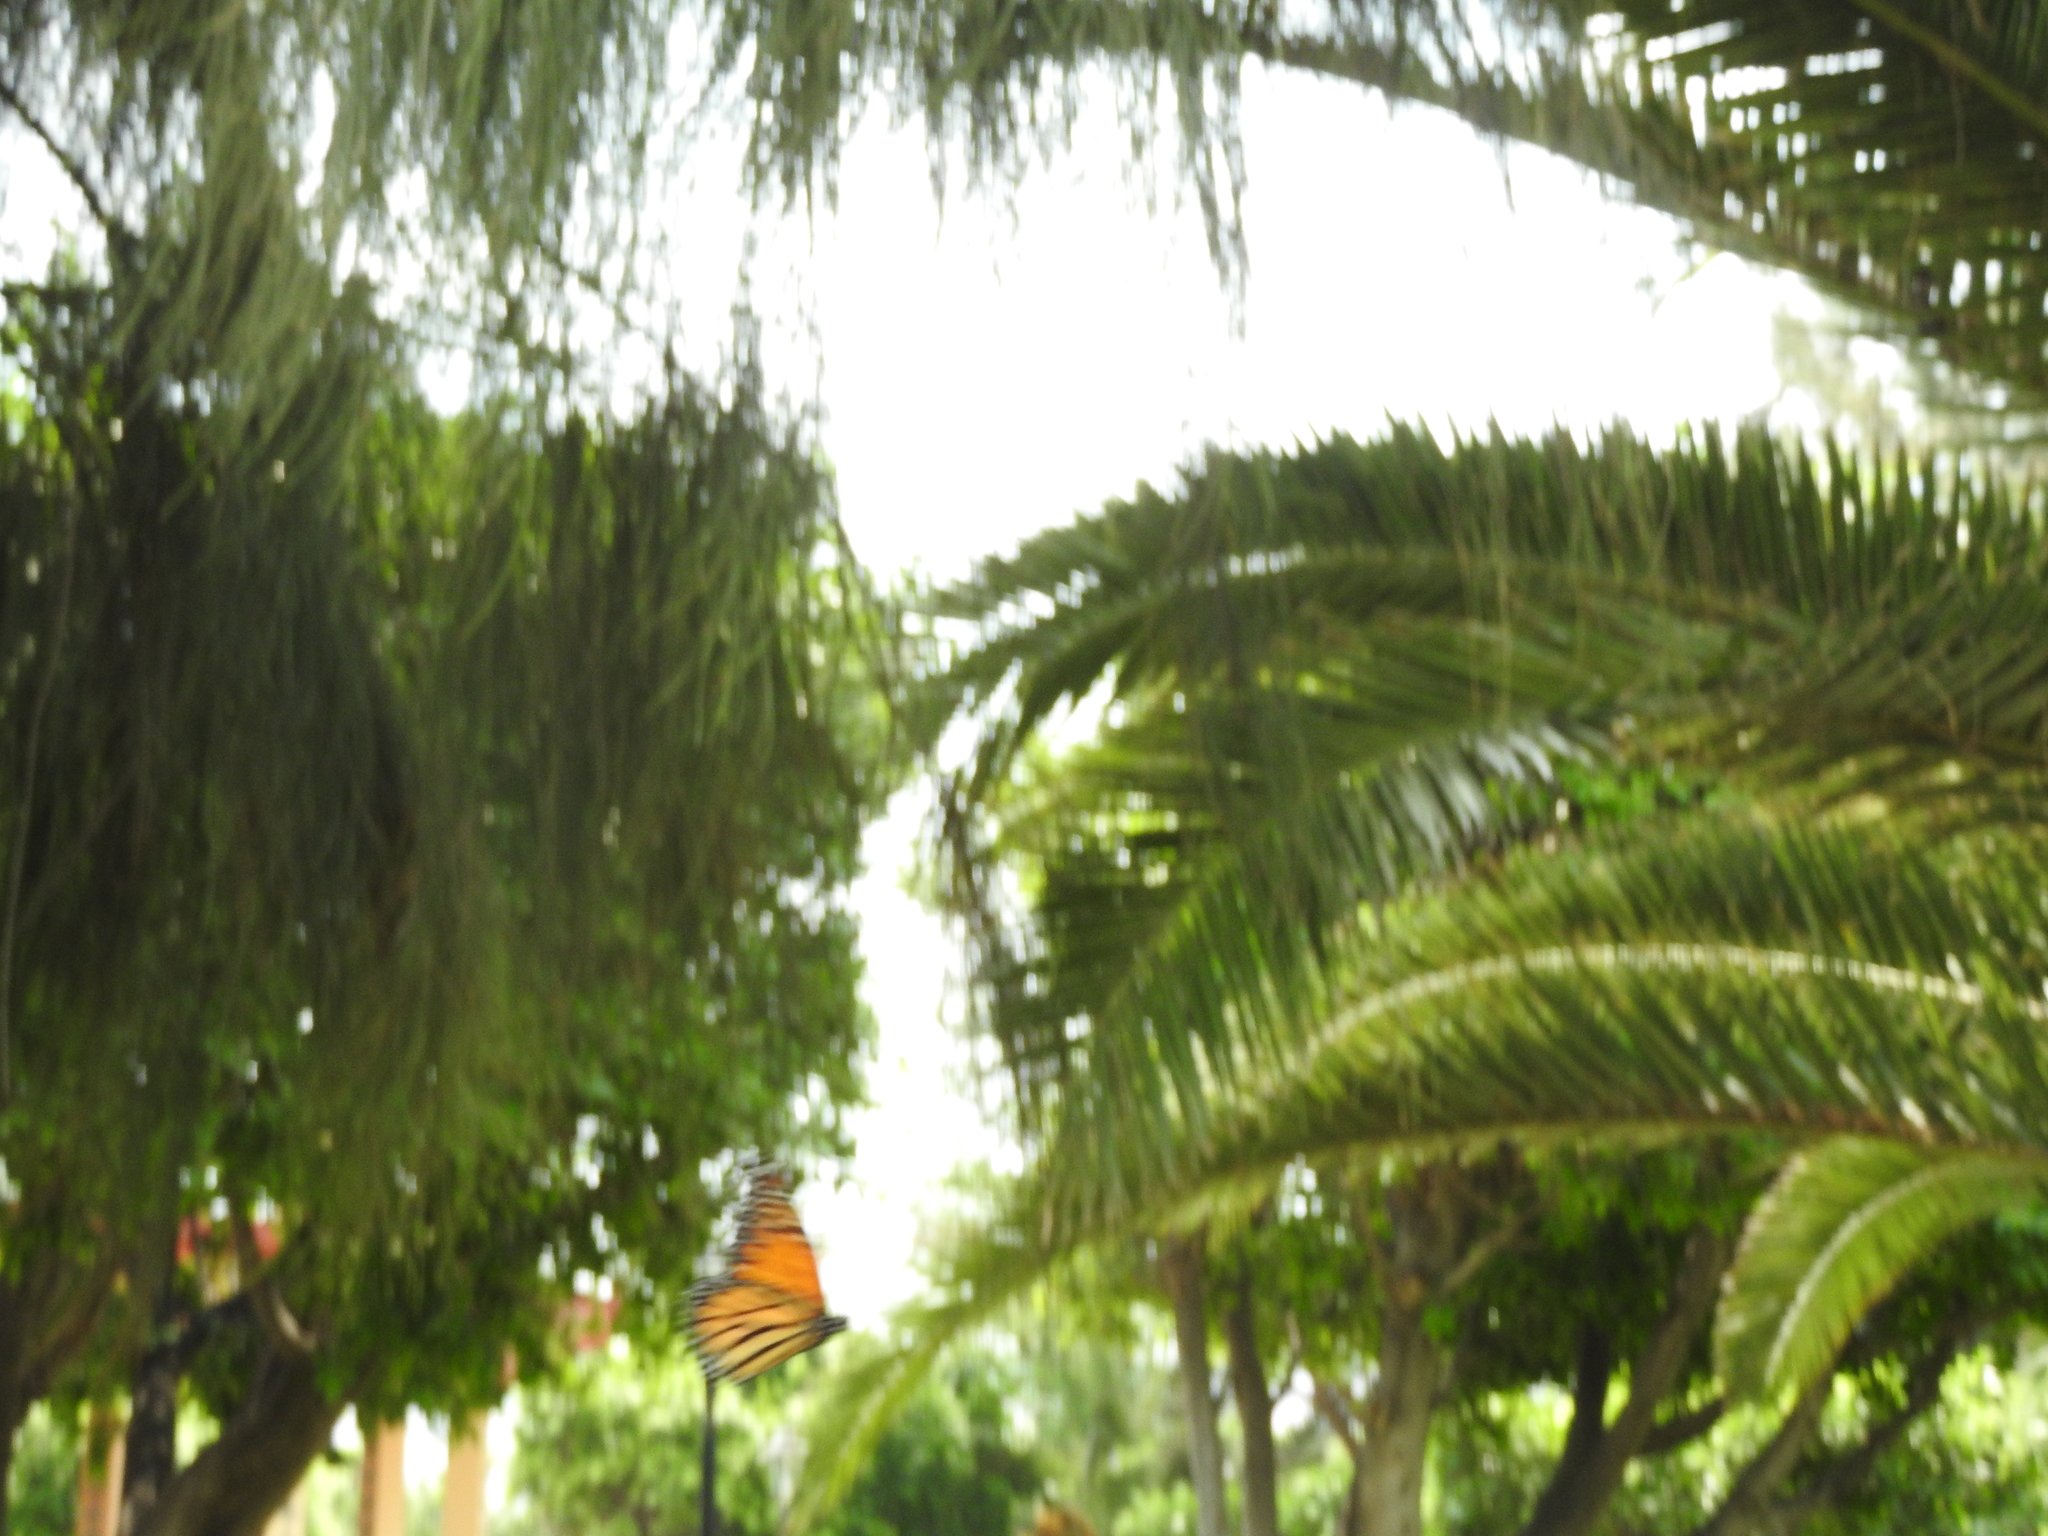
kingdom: Animalia
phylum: Arthropoda
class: Insecta
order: Lepidoptera
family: Nymphalidae
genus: Danaus
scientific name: Danaus plexippus
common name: Monarch
